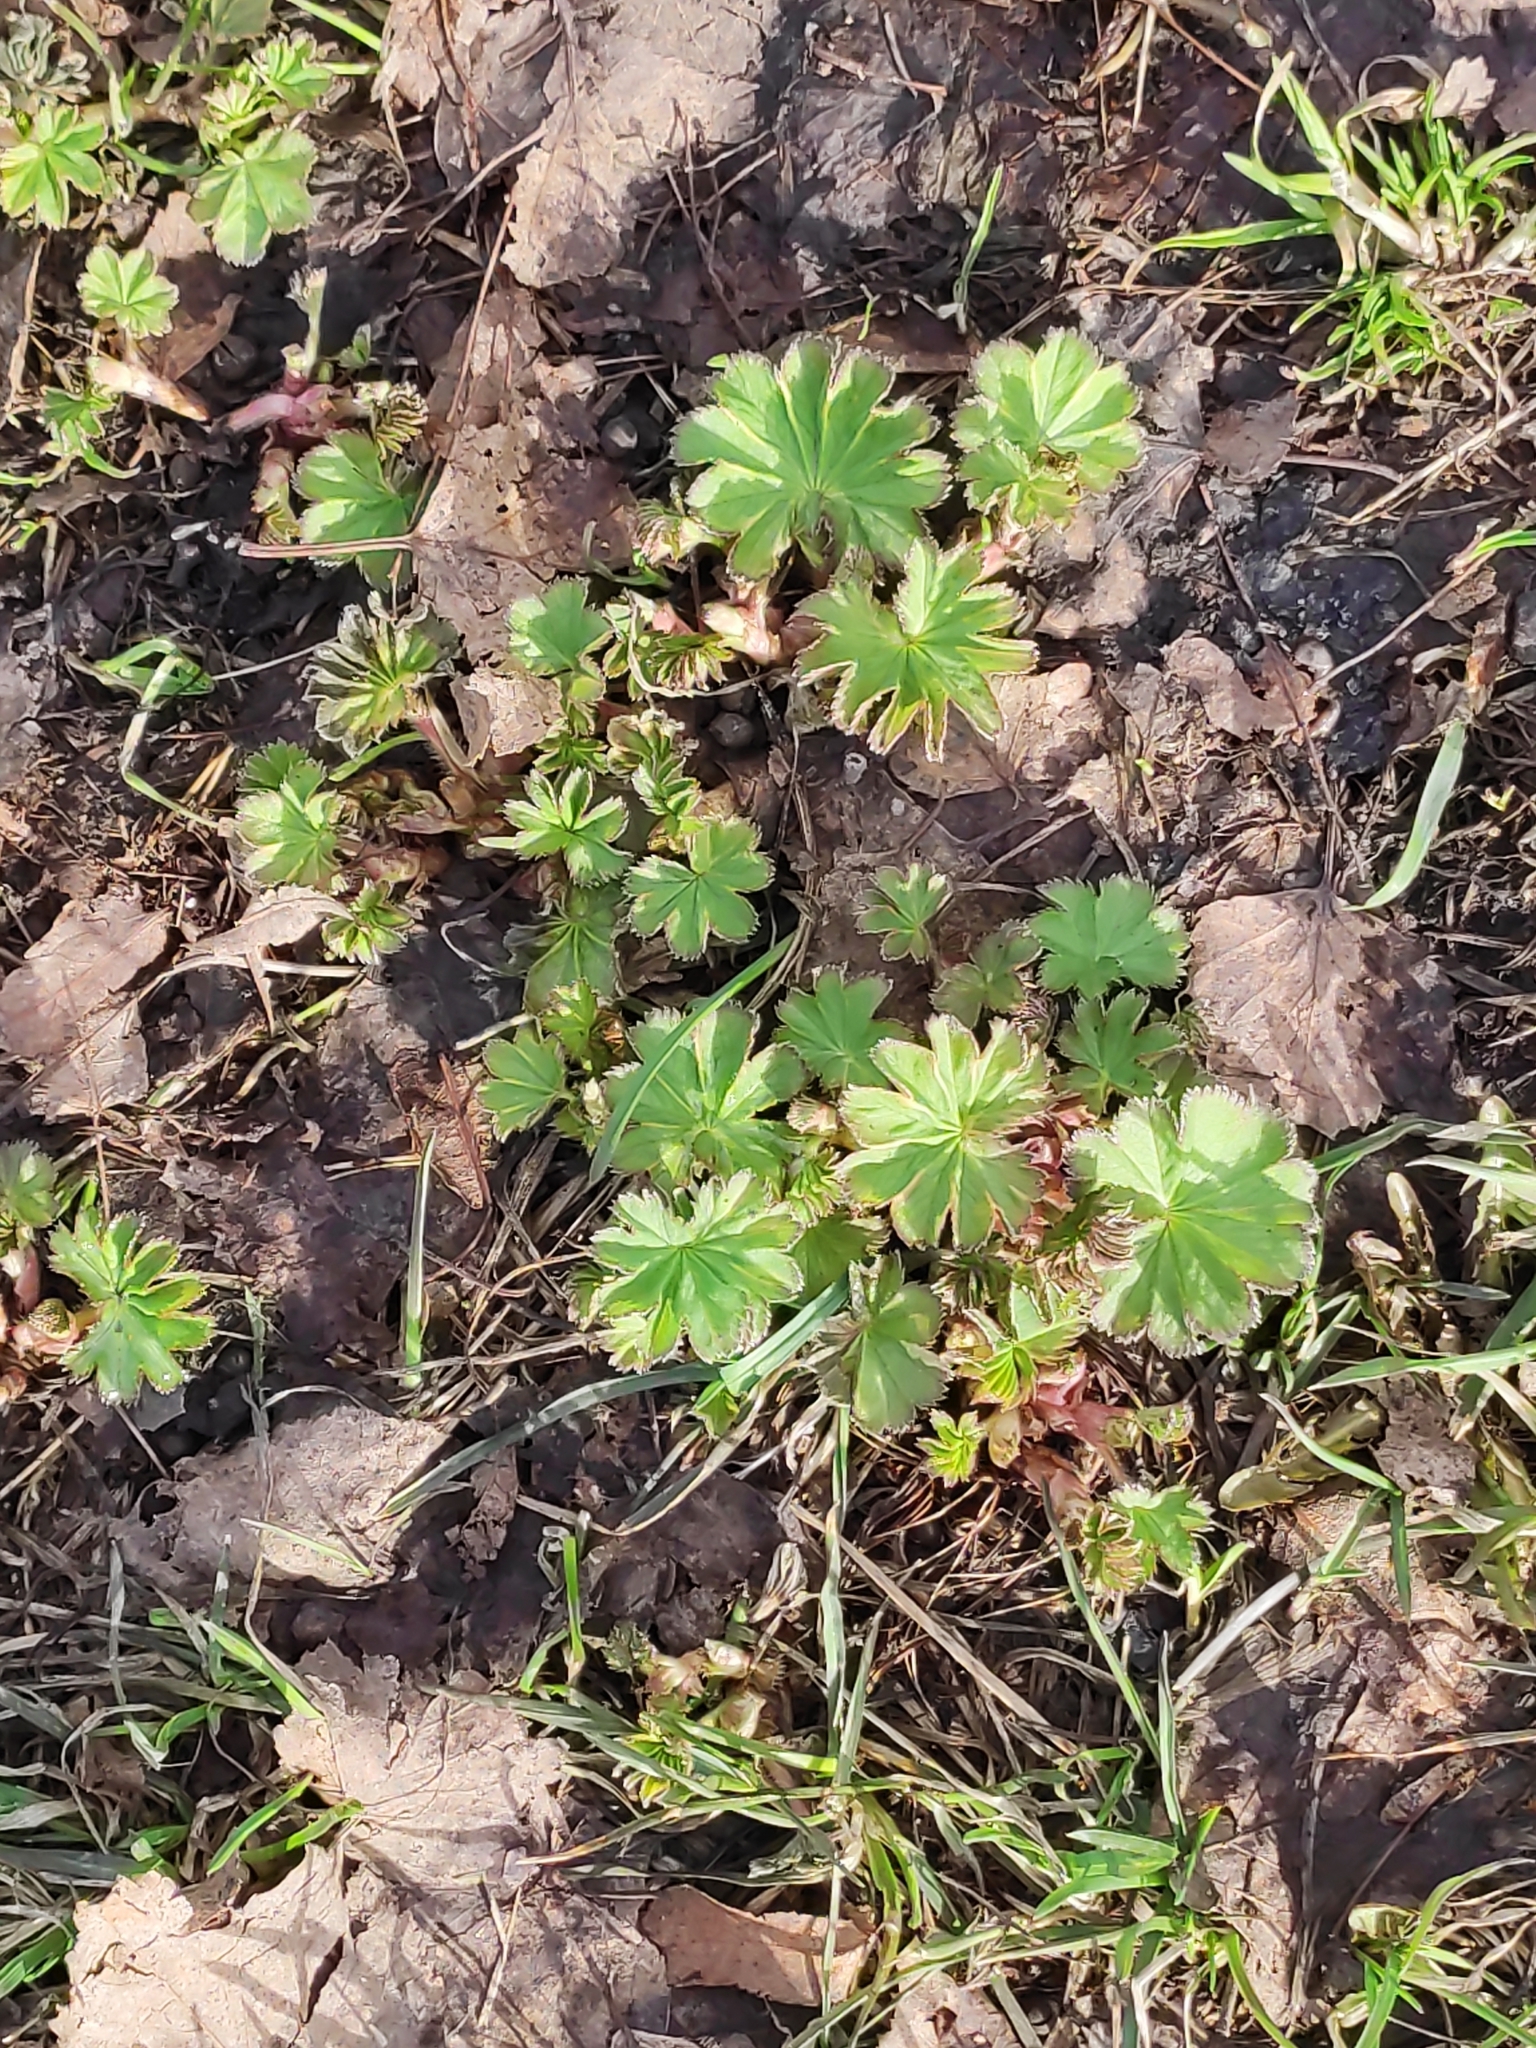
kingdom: Plantae
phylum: Tracheophyta
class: Magnoliopsida
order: Rosales
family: Rosaceae
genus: Alchemilla
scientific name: Alchemilla
